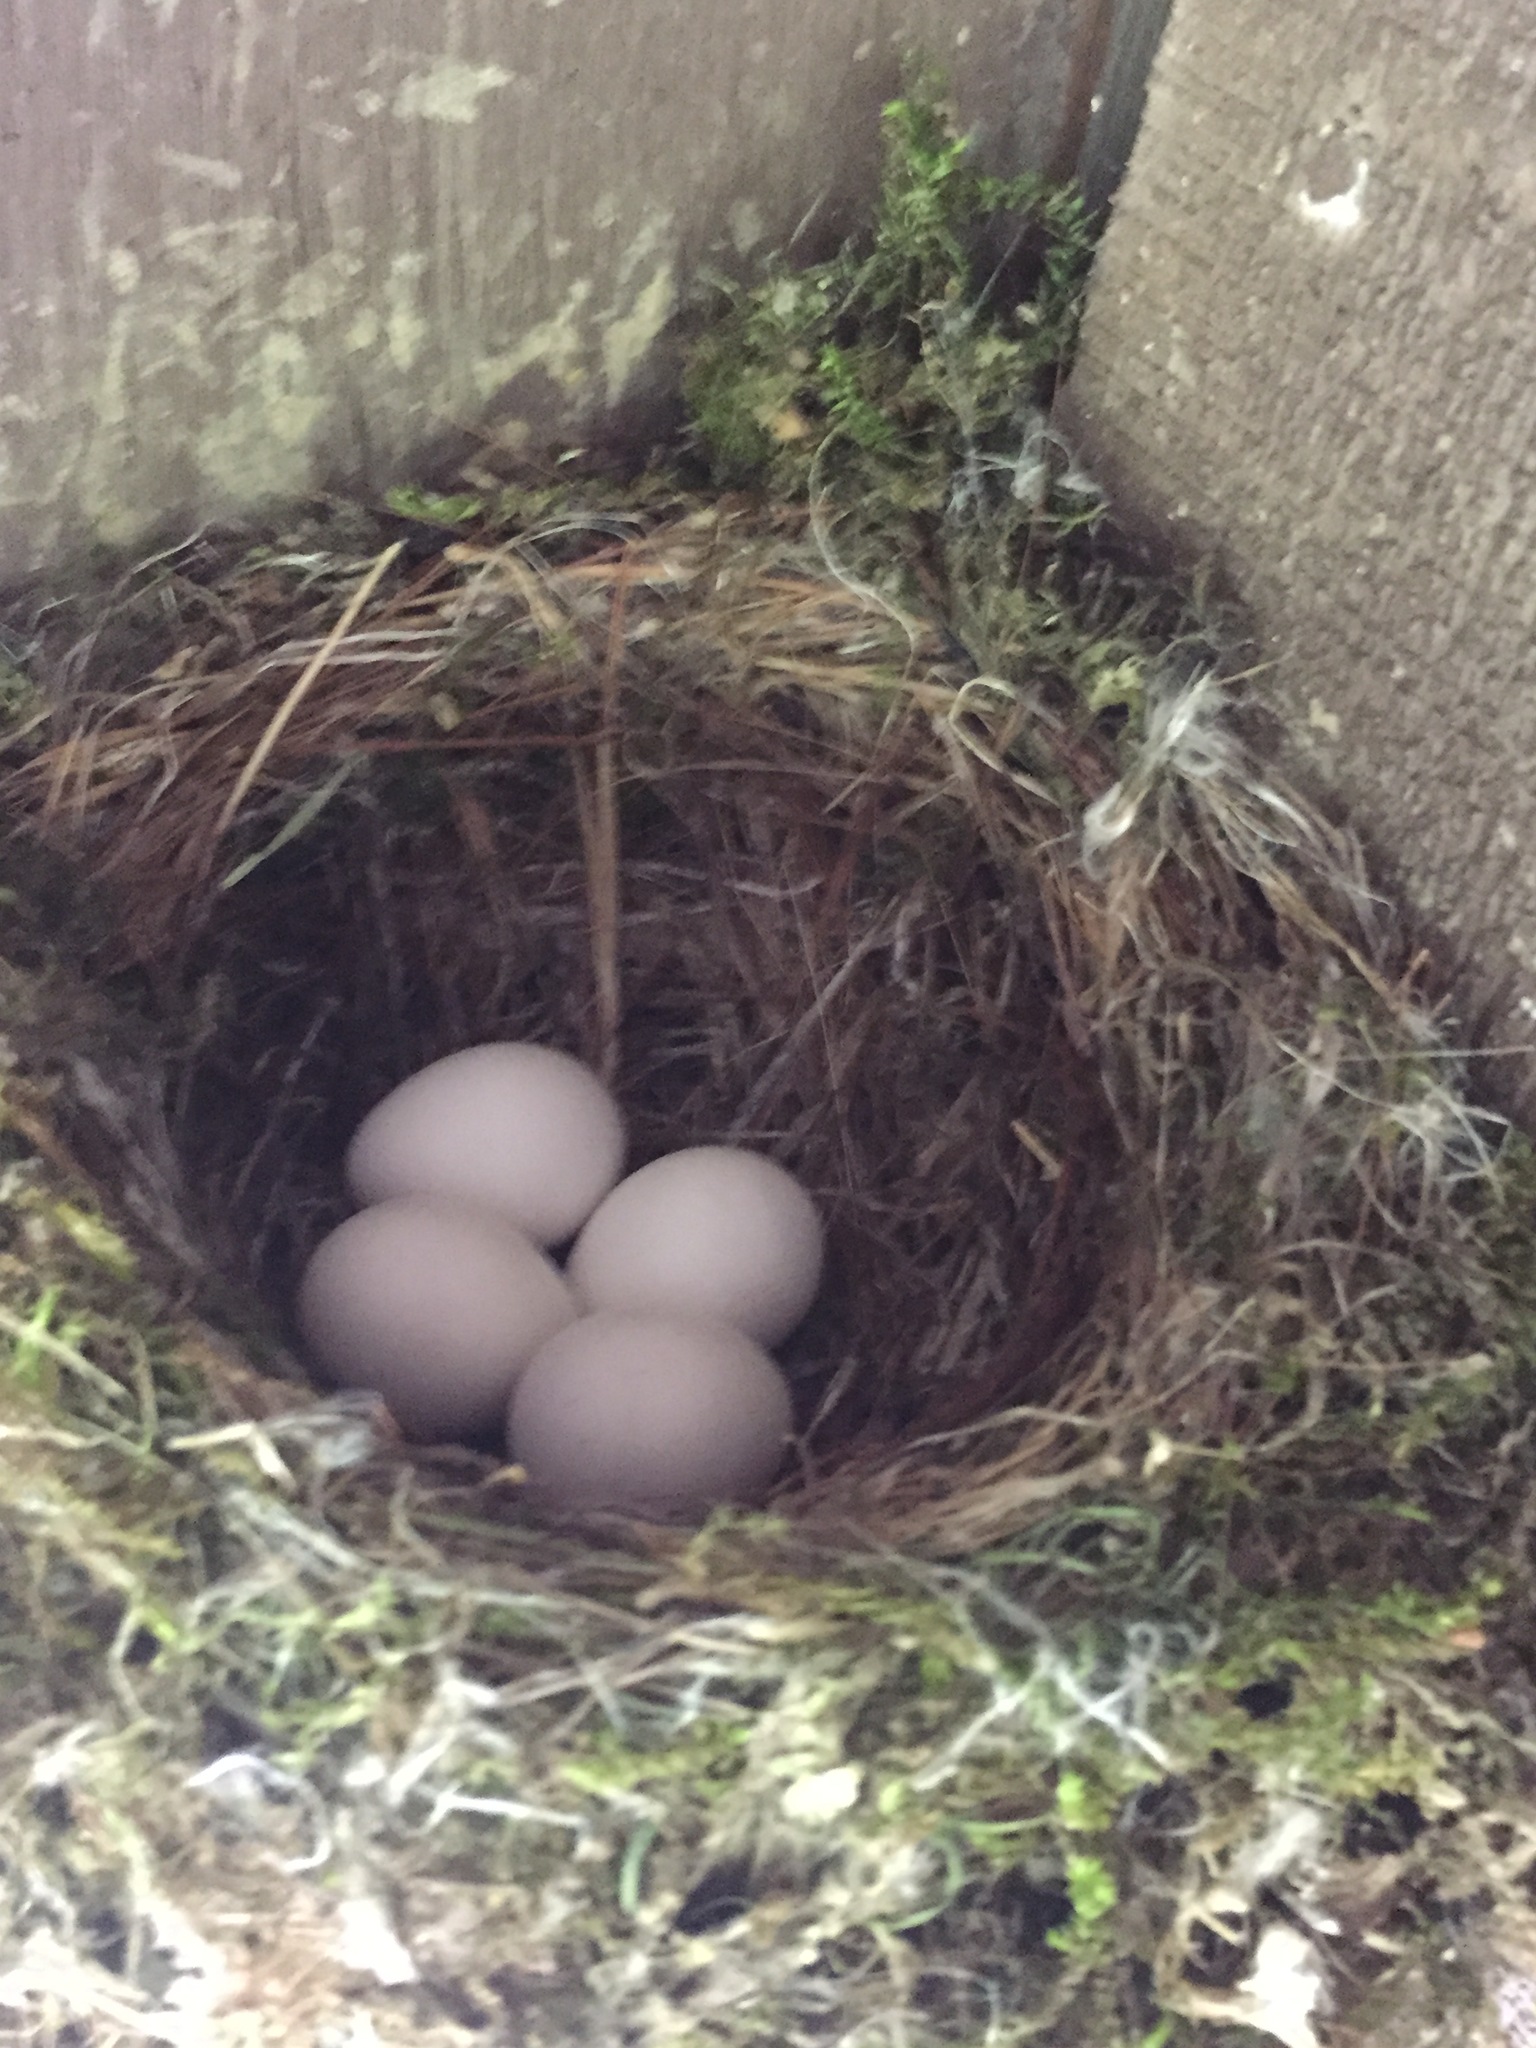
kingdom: Animalia
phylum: Chordata
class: Aves
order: Passeriformes
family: Tyrannidae
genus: Sayornis
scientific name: Sayornis phoebe
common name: Eastern phoebe
